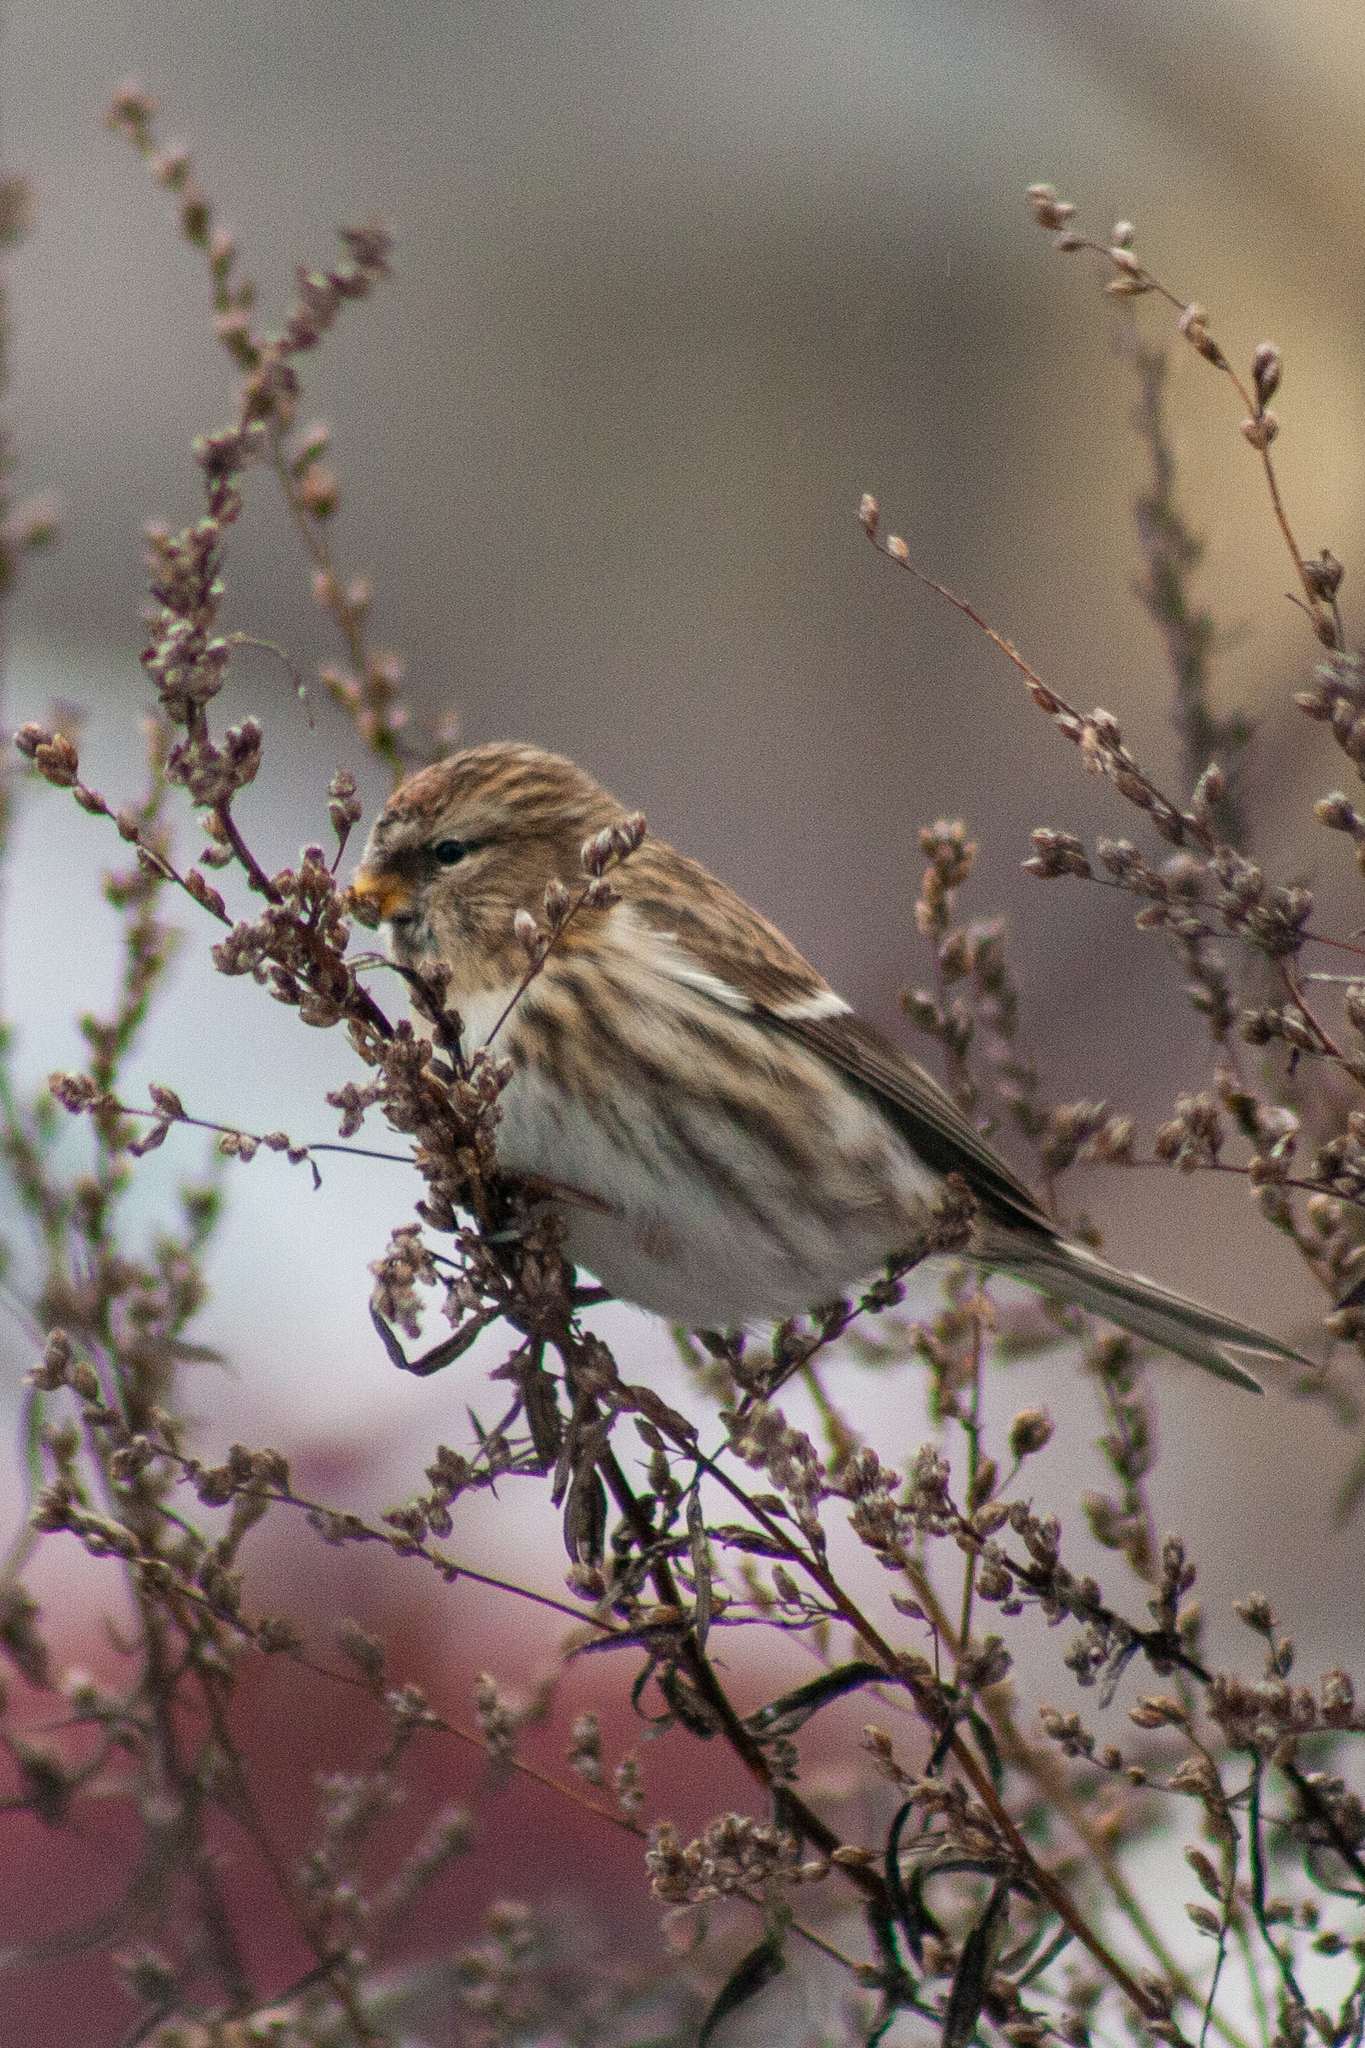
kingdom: Animalia
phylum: Chordata
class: Aves
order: Passeriformes
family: Fringillidae
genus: Acanthis
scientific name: Acanthis flammea
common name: Common redpoll
